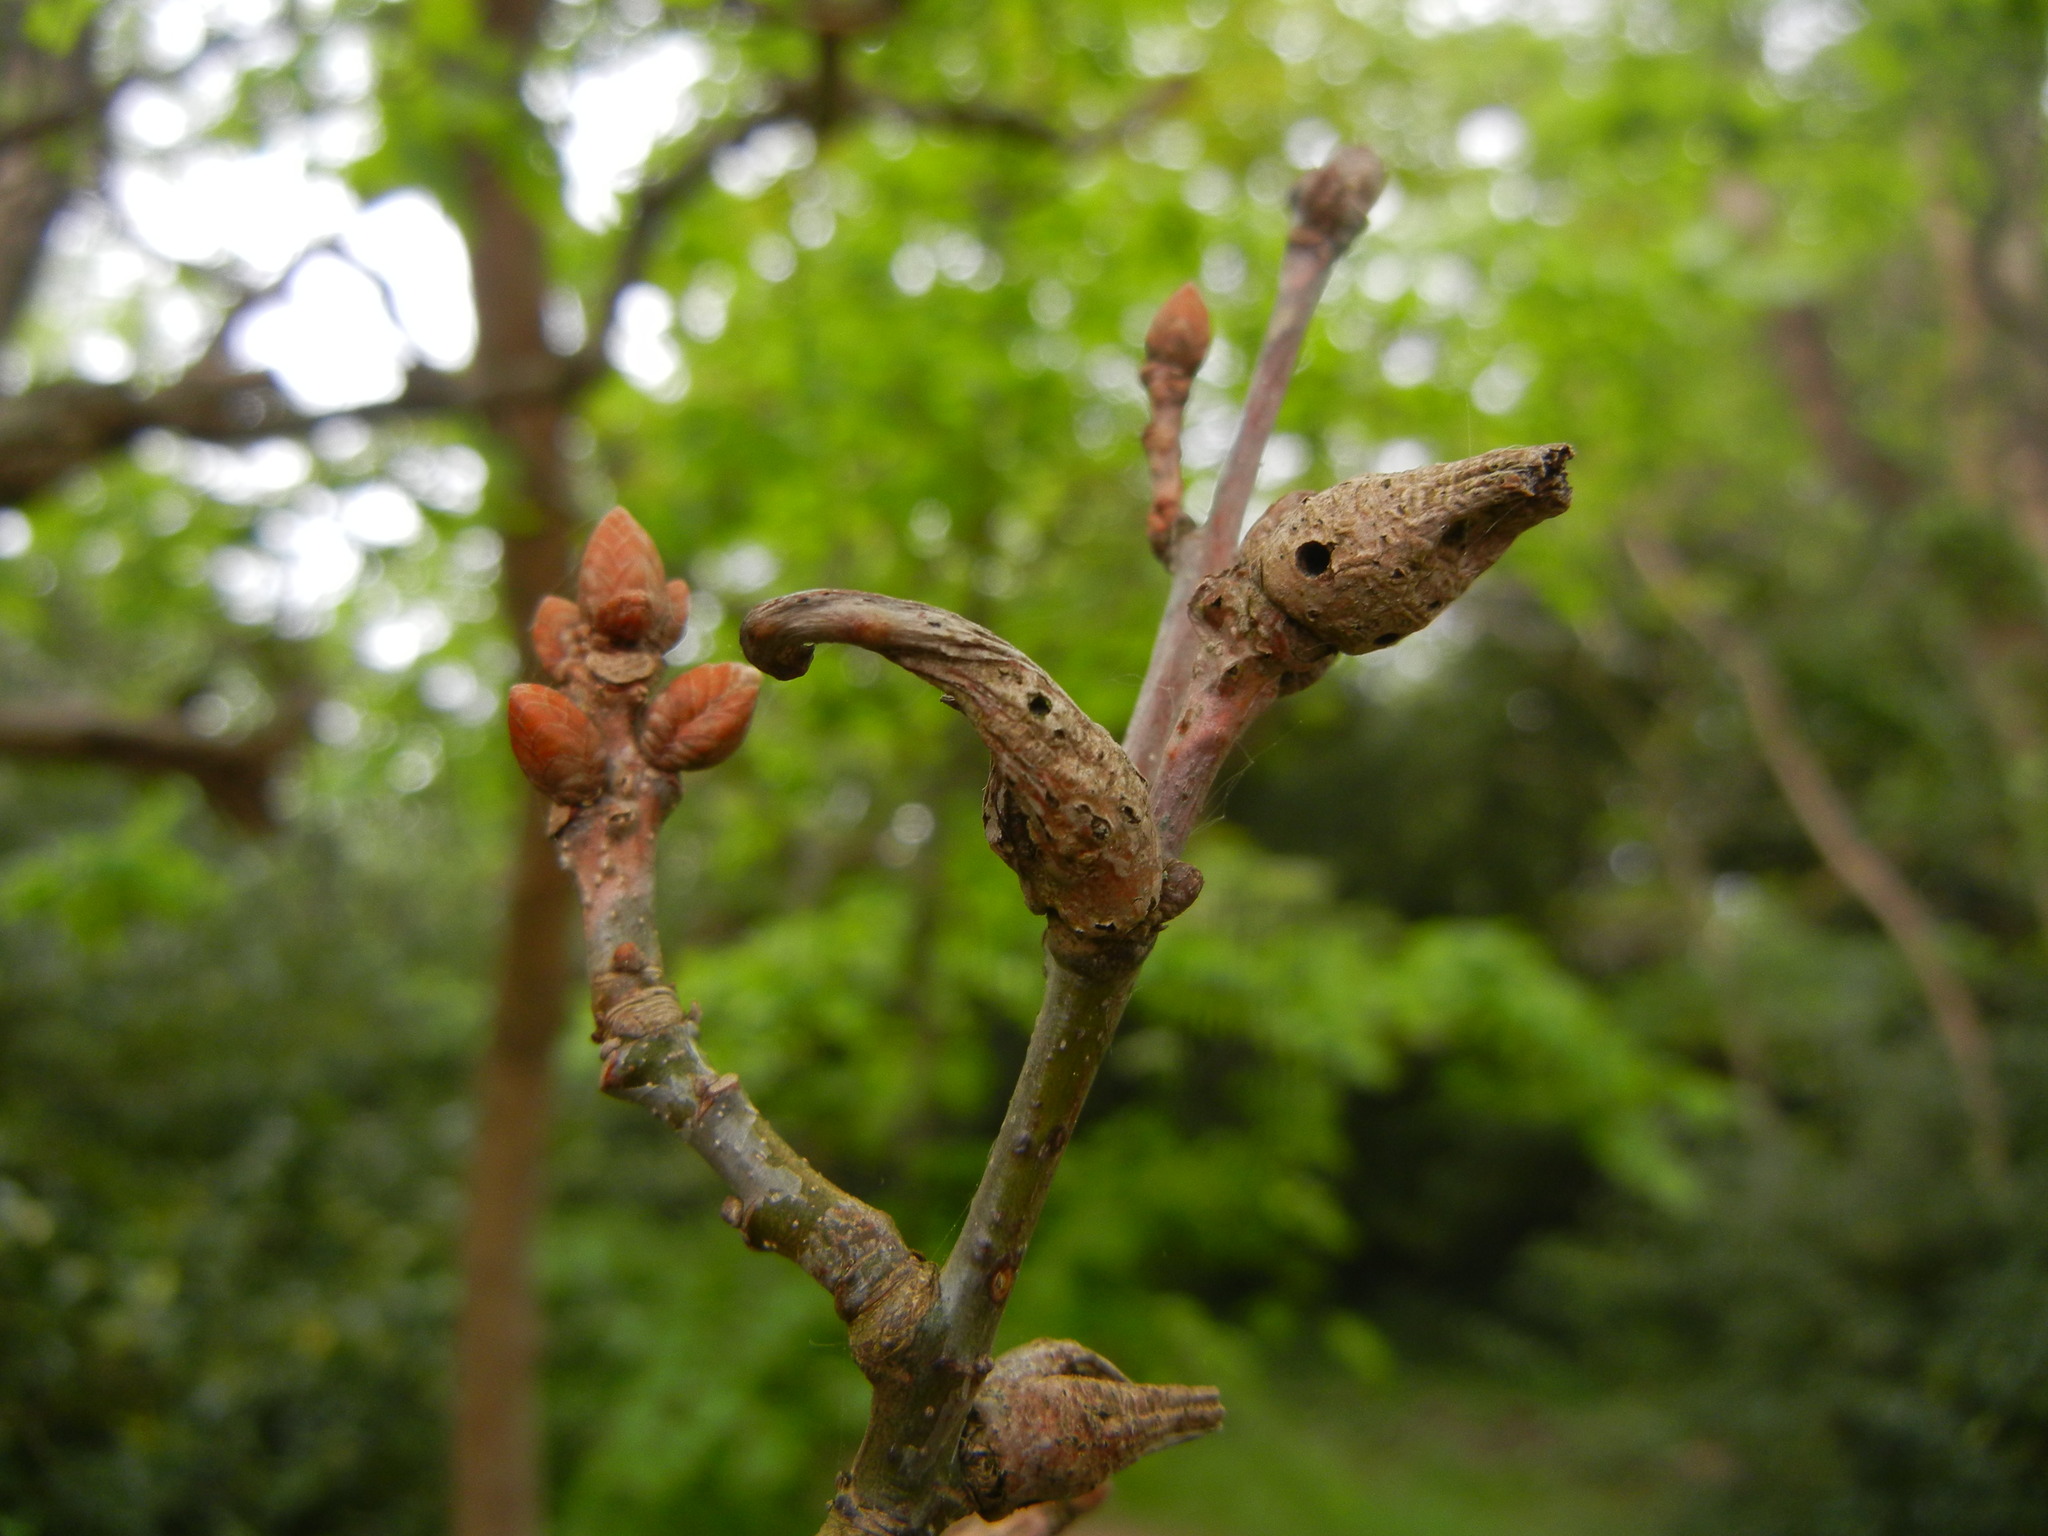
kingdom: Animalia
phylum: Arthropoda
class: Insecta
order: Hymenoptera
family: Cynipidae
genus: Andricus
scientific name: Andricus aries
